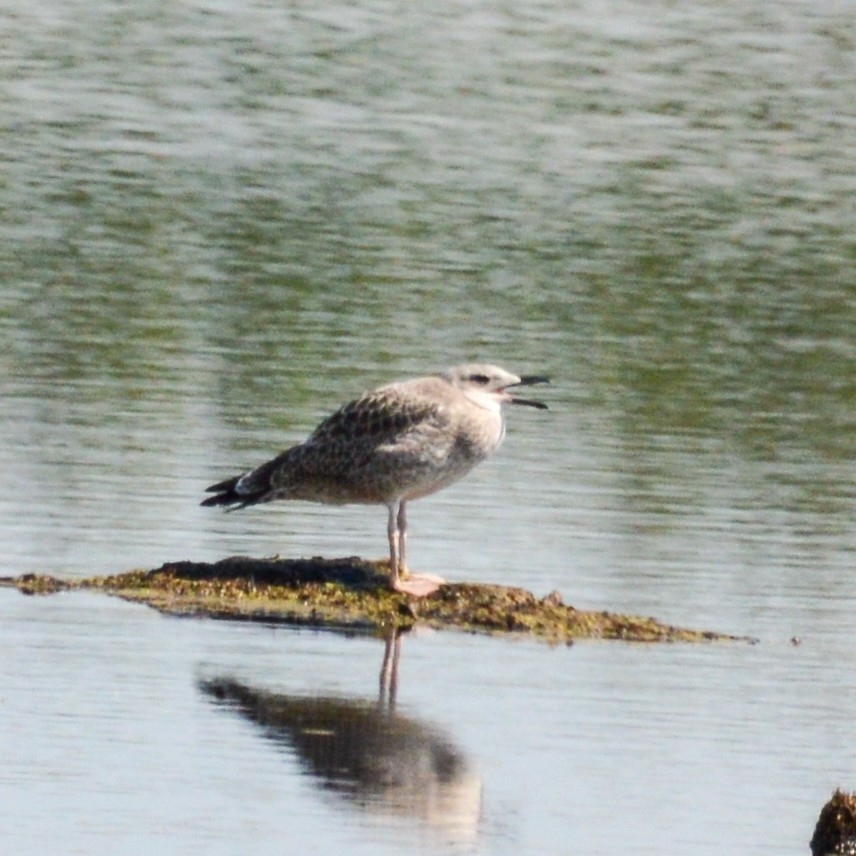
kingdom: Animalia
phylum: Chordata
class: Aves
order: Charadriiformes
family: Laridae
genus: Larus
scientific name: Larus fuscus
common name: Lesser black-backed gull
